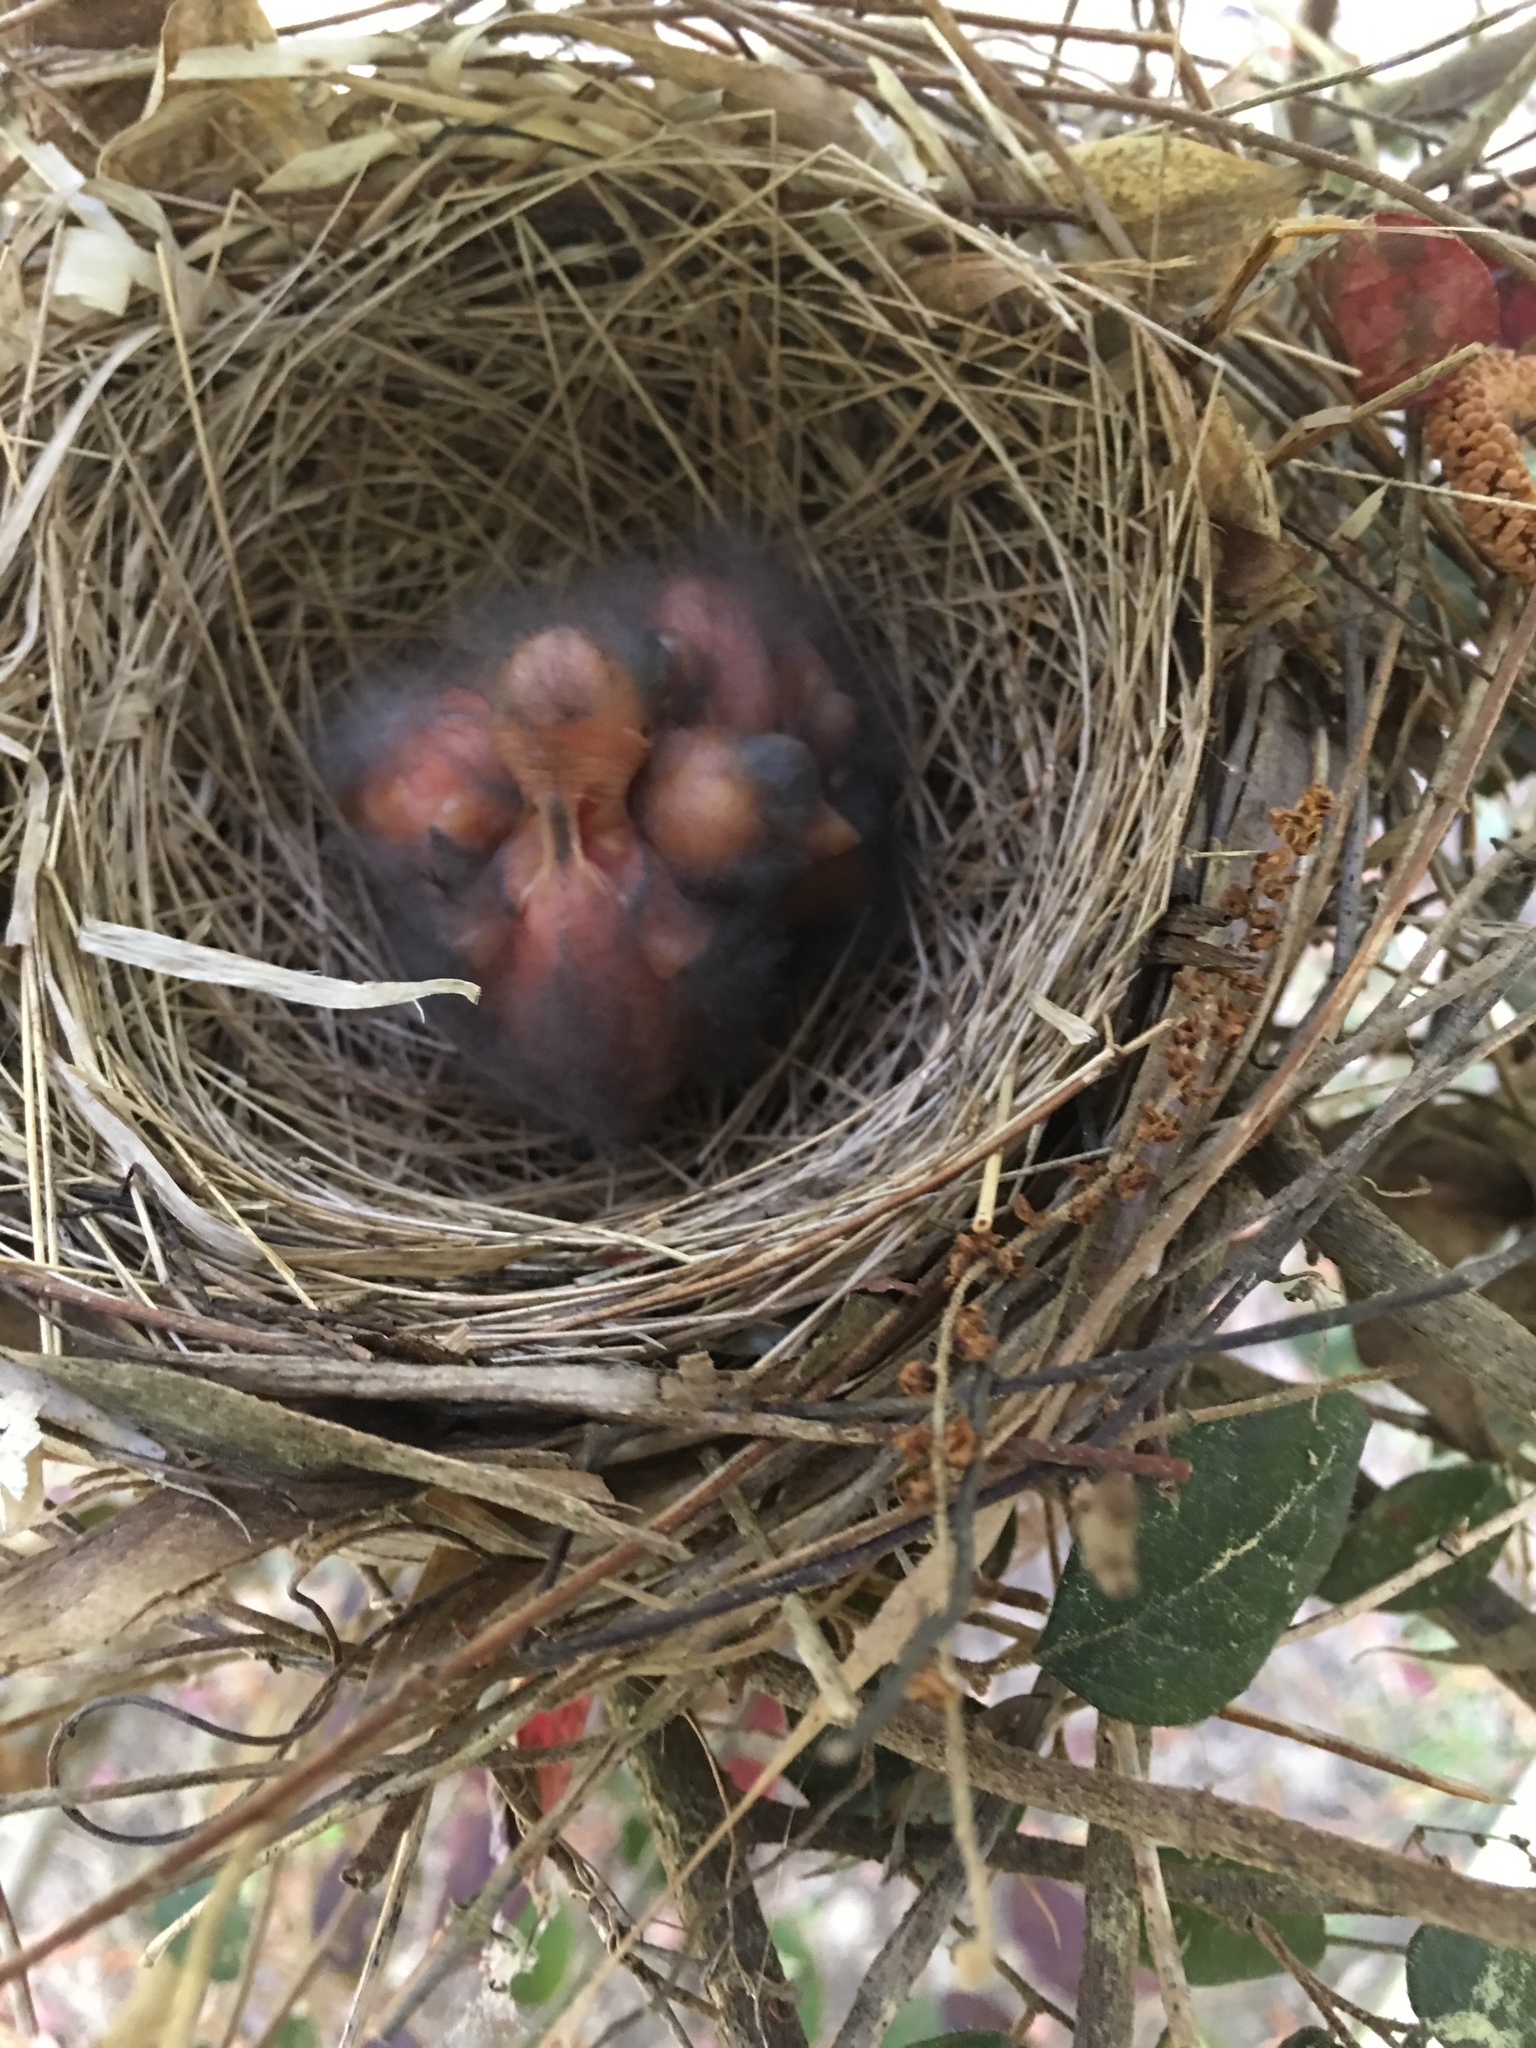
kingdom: Animalia
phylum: Chordata
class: Aves
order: Passeriformes
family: Cardinalidae
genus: Cardinalis
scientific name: Cardinalis cardinalis
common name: Northern cardinal
